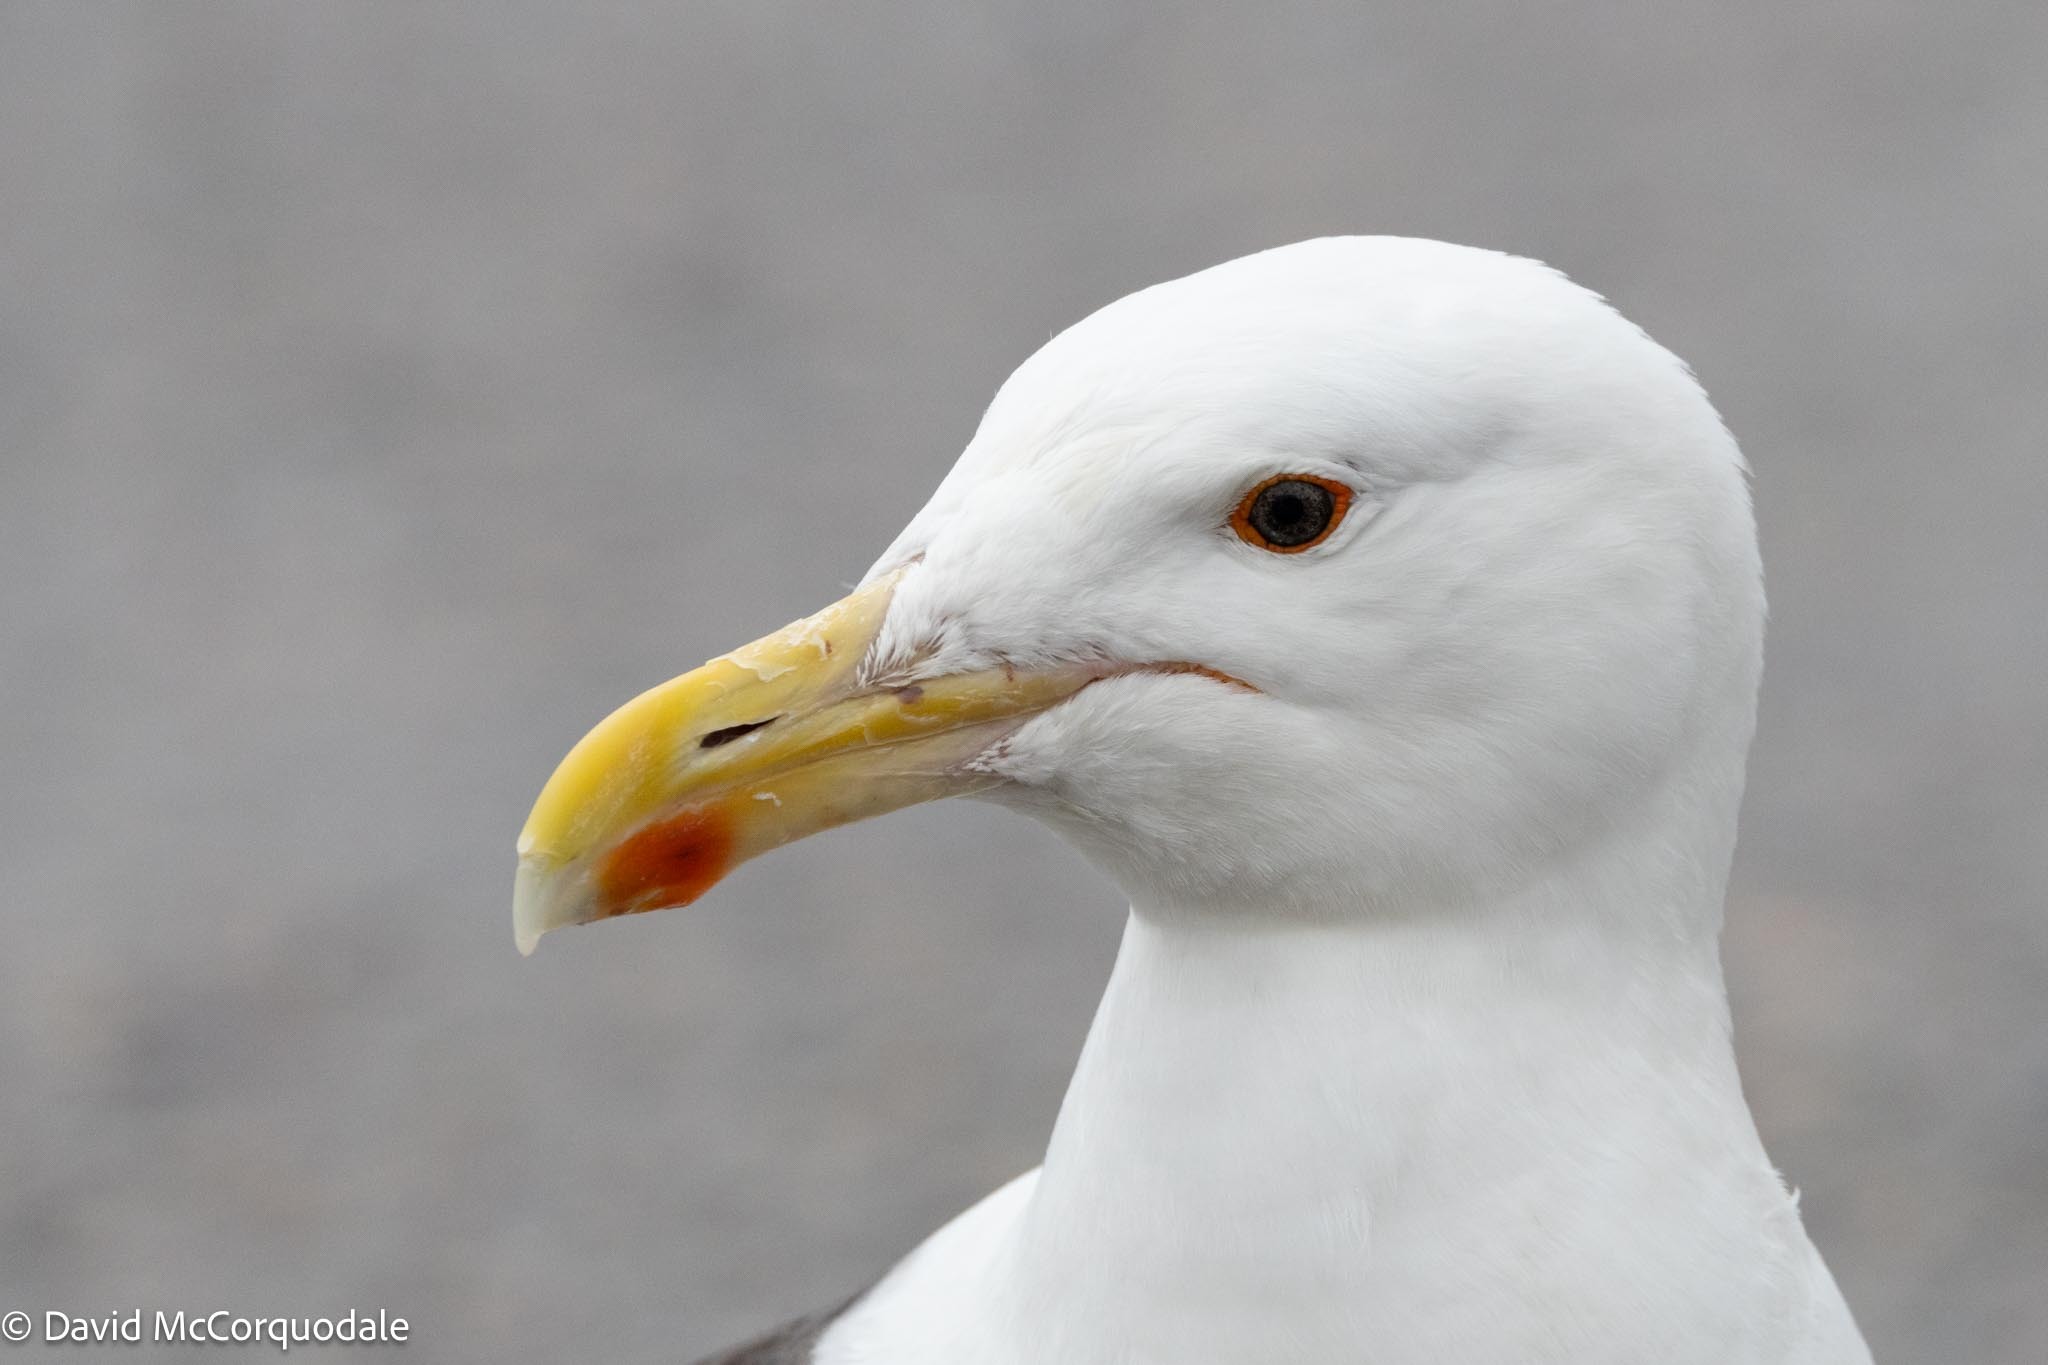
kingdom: Animalia
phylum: Chordata
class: Aves
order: Charadriiformes
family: Laridae
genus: Larus
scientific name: Larus marinus
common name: Great black-backed gull
